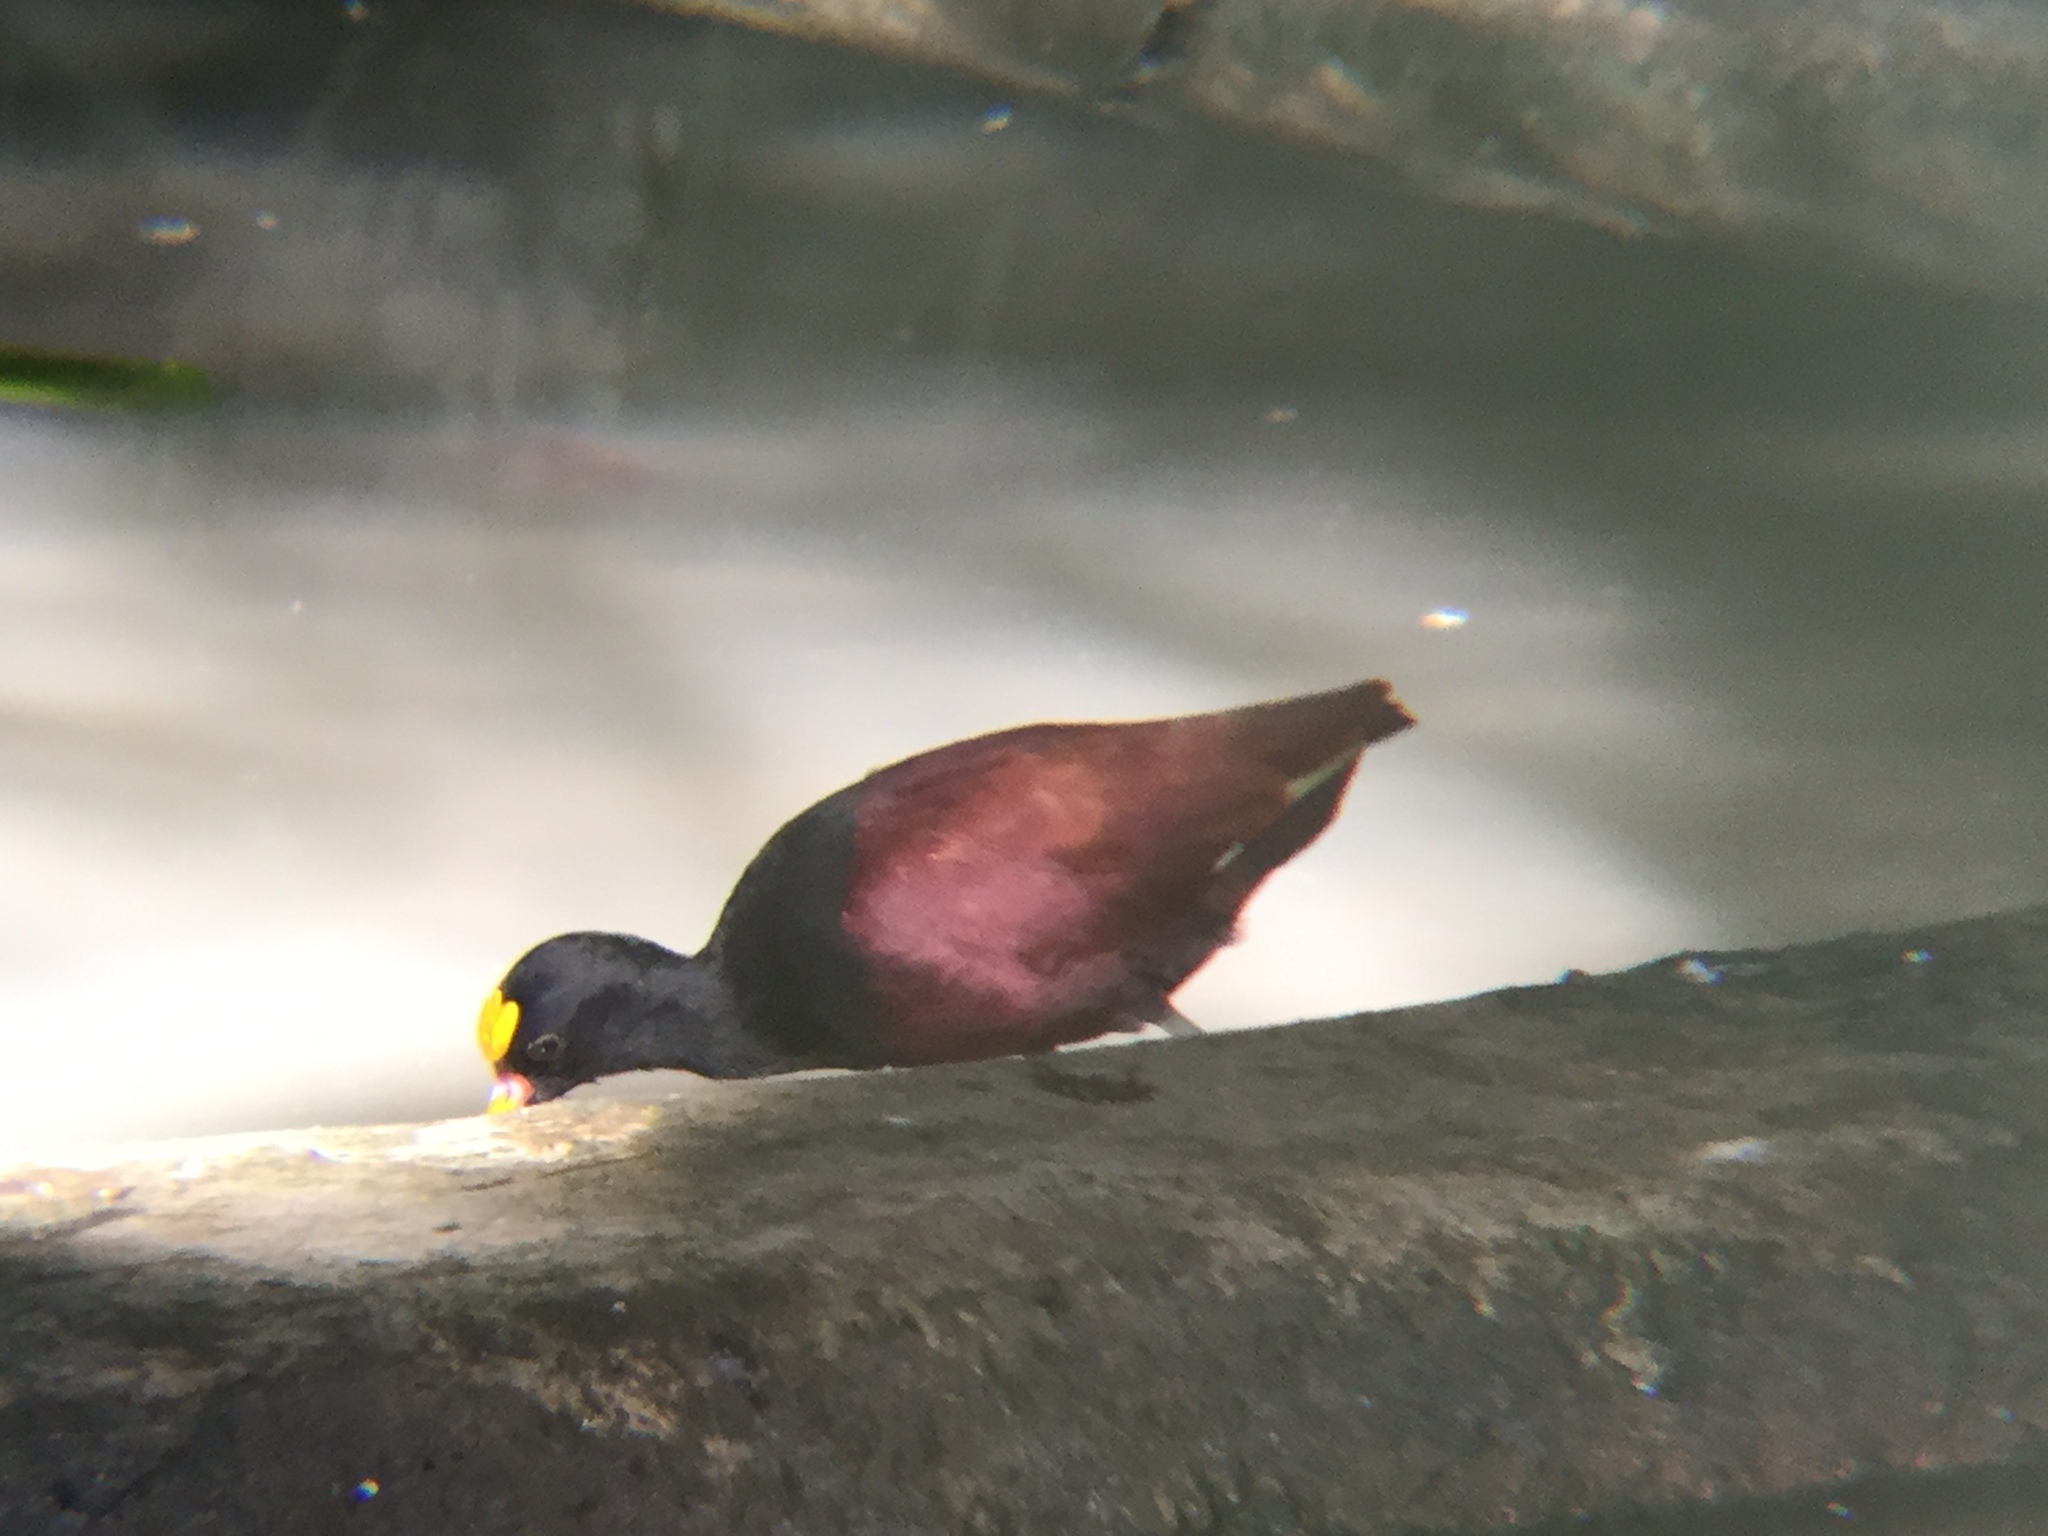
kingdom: Animalia
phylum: Chordata
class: Aves
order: Charadriiformes
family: Jacanidae
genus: Jacana
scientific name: Jacana spinosa
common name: Northern jacana
